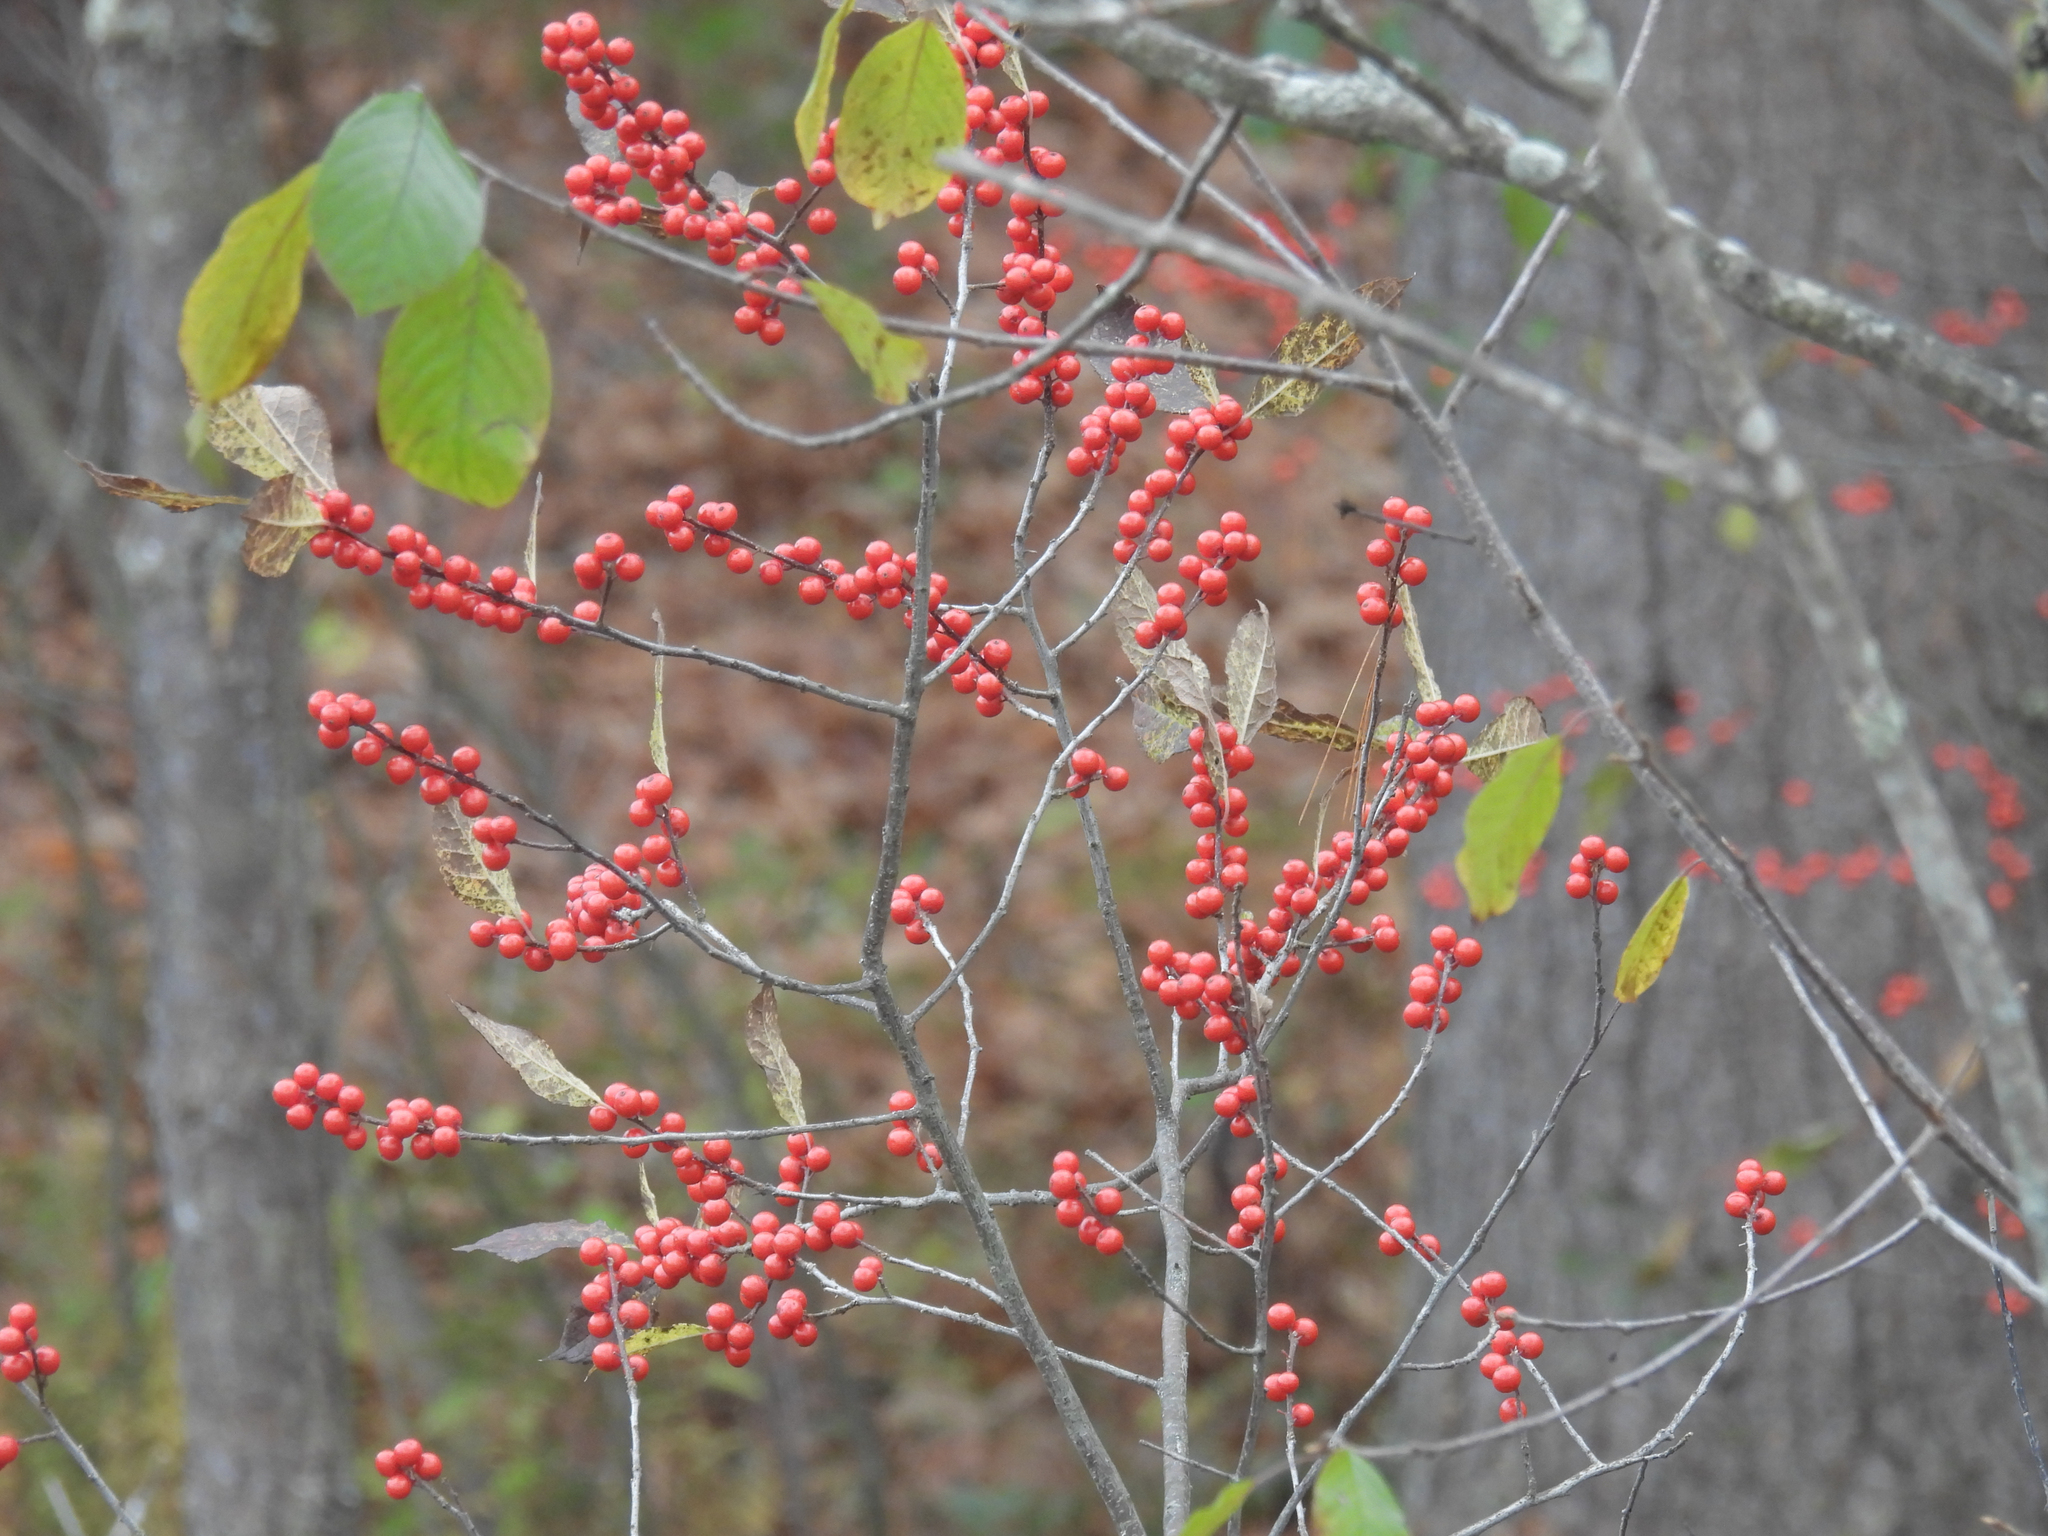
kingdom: Plantae
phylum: Tracheophyta
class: Magnoliopsida
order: Aquifoliales
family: Aquifoliaceae
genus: Ilex
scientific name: Ilex verticillata
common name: Virginia winterberry
